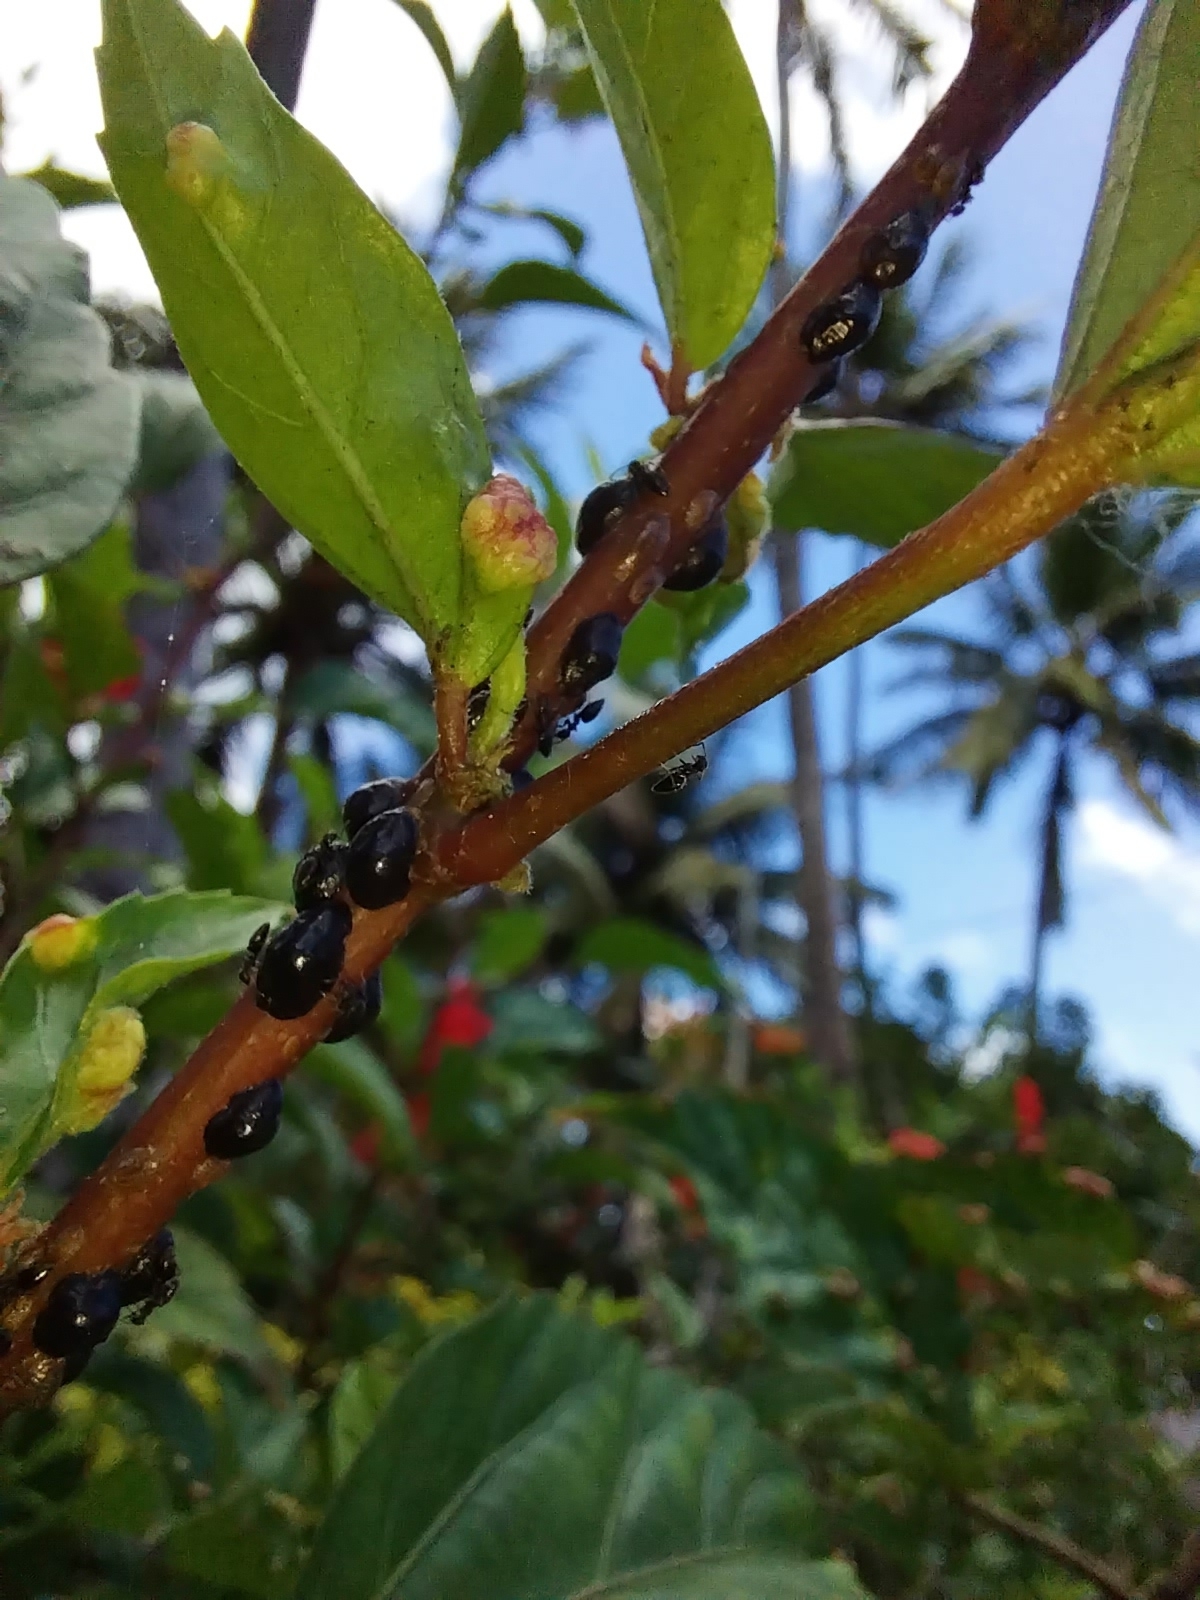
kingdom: Animalia
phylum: Arthropoda
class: Insecta
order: Hemiptera
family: Coccidae
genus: Parasaissetia
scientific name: Parasaissetia nigra
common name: Black scale
